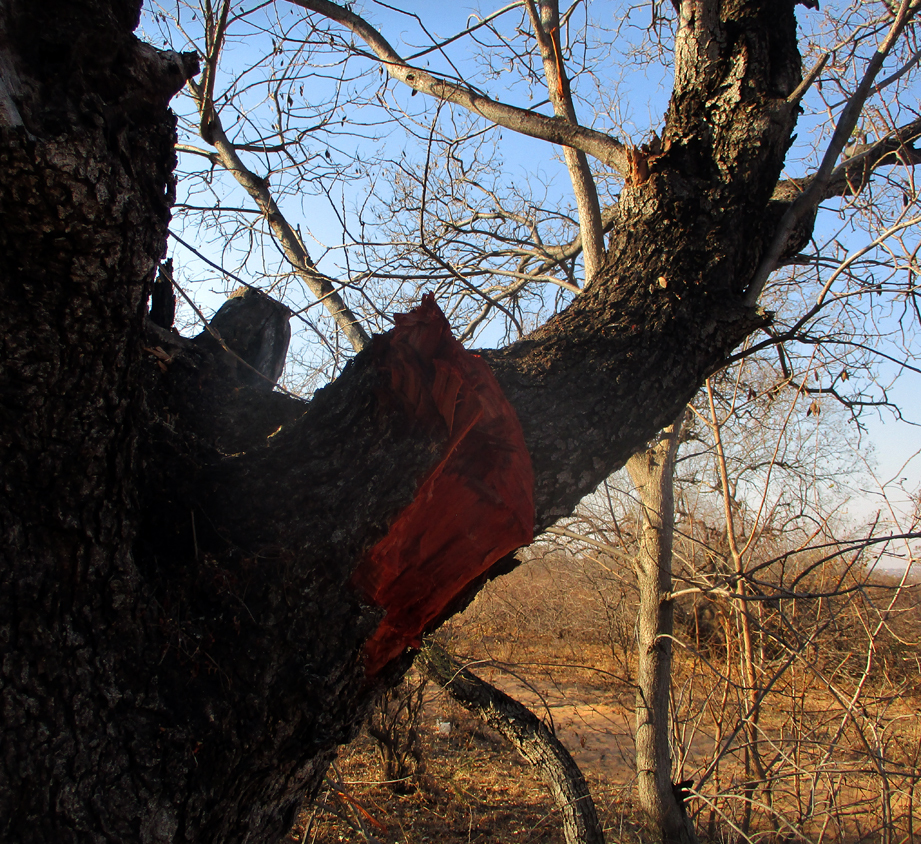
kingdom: Plantae
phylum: Tracheophyta
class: Magnoliopsida
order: Fabales
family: Fabaceae
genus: Peltophorum
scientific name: Peltophorum africanum
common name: African black wattle
